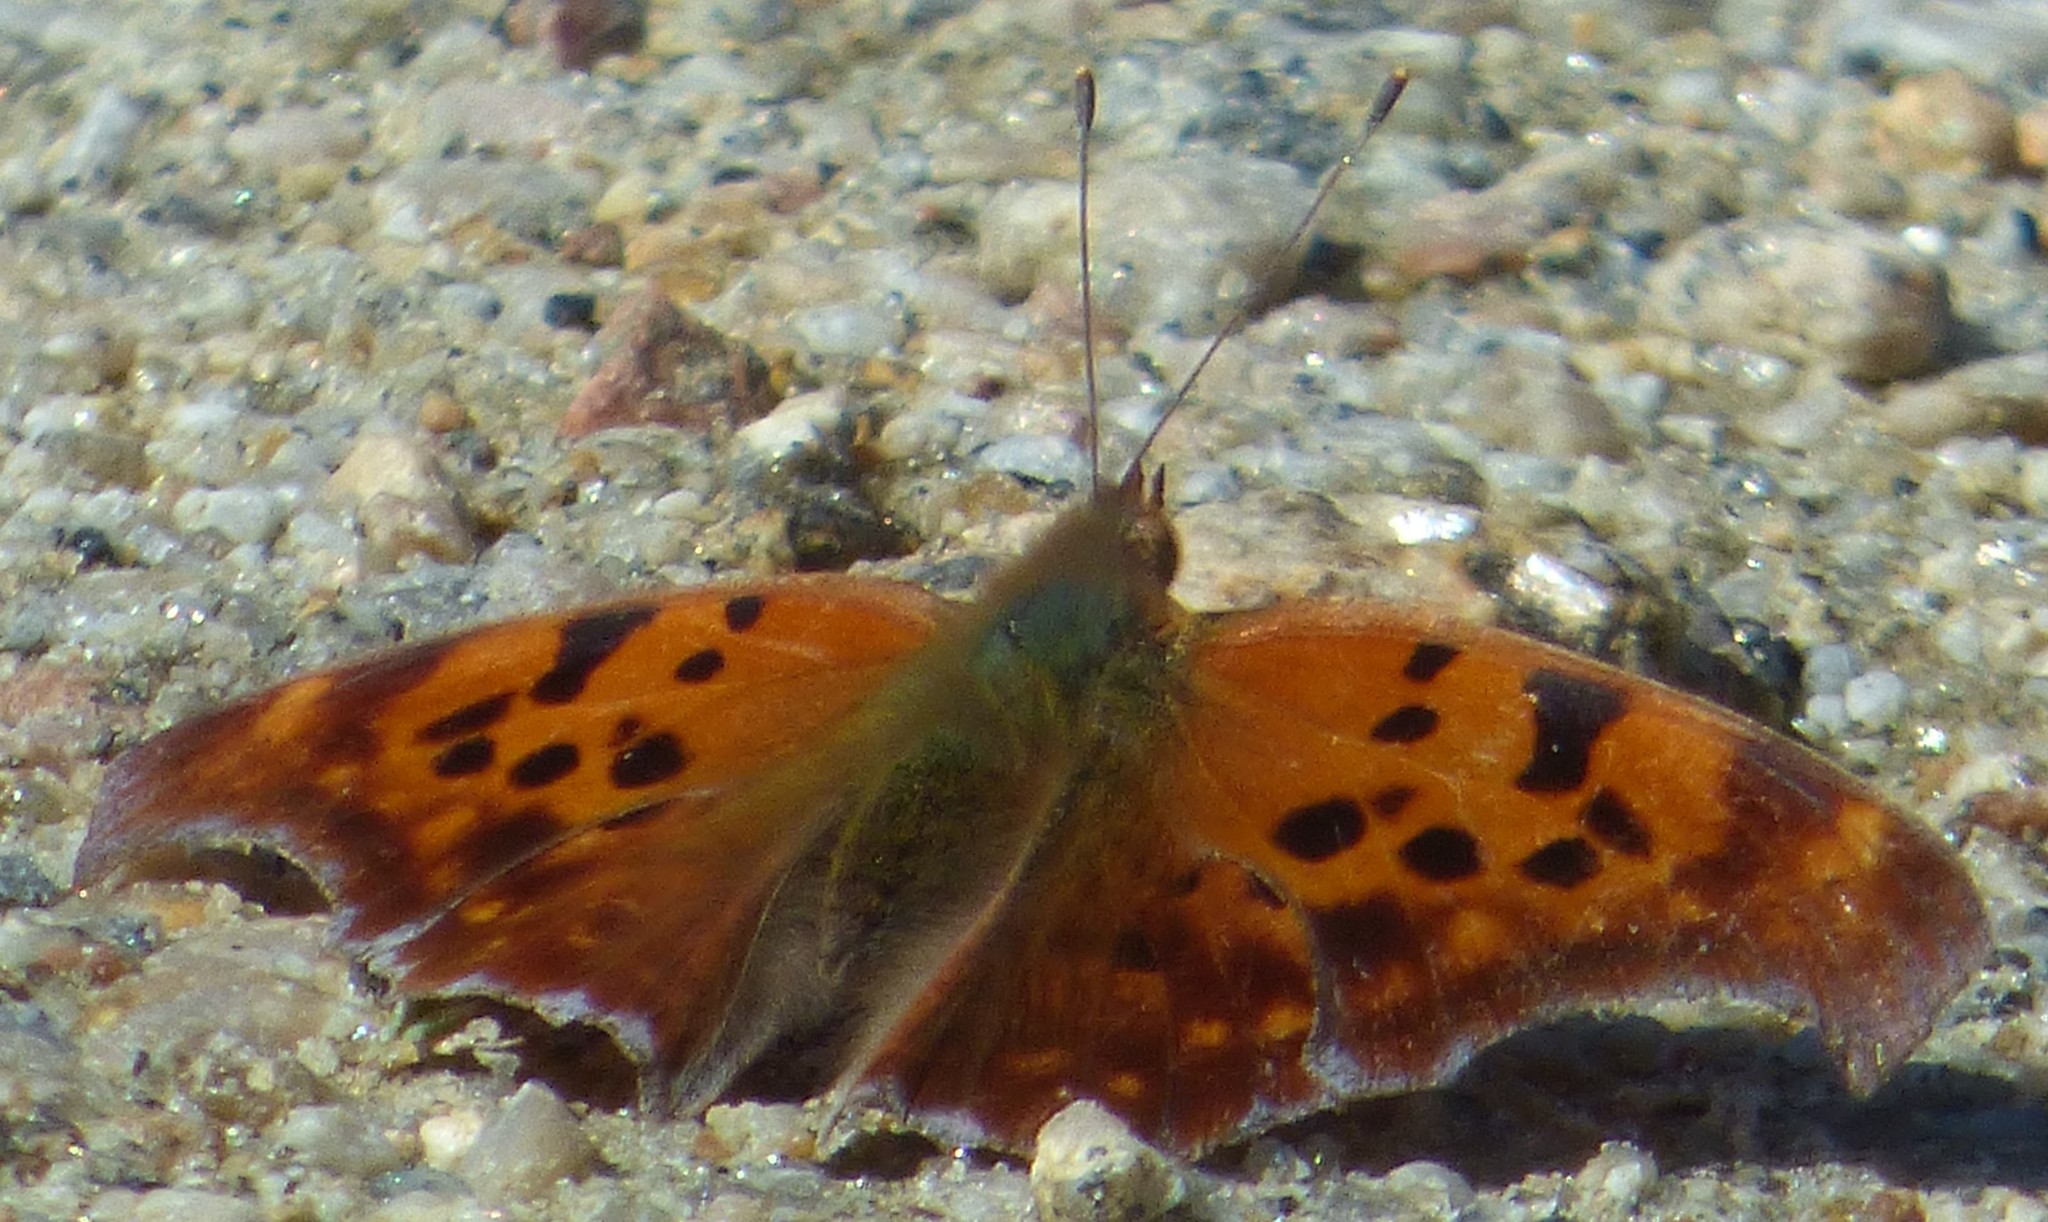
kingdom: Animalia
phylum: Arthropoda
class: Insecta
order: Lepidoptera
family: Nymphalidae
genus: Polygonia
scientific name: Polygonia interrogationis
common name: Question mark
